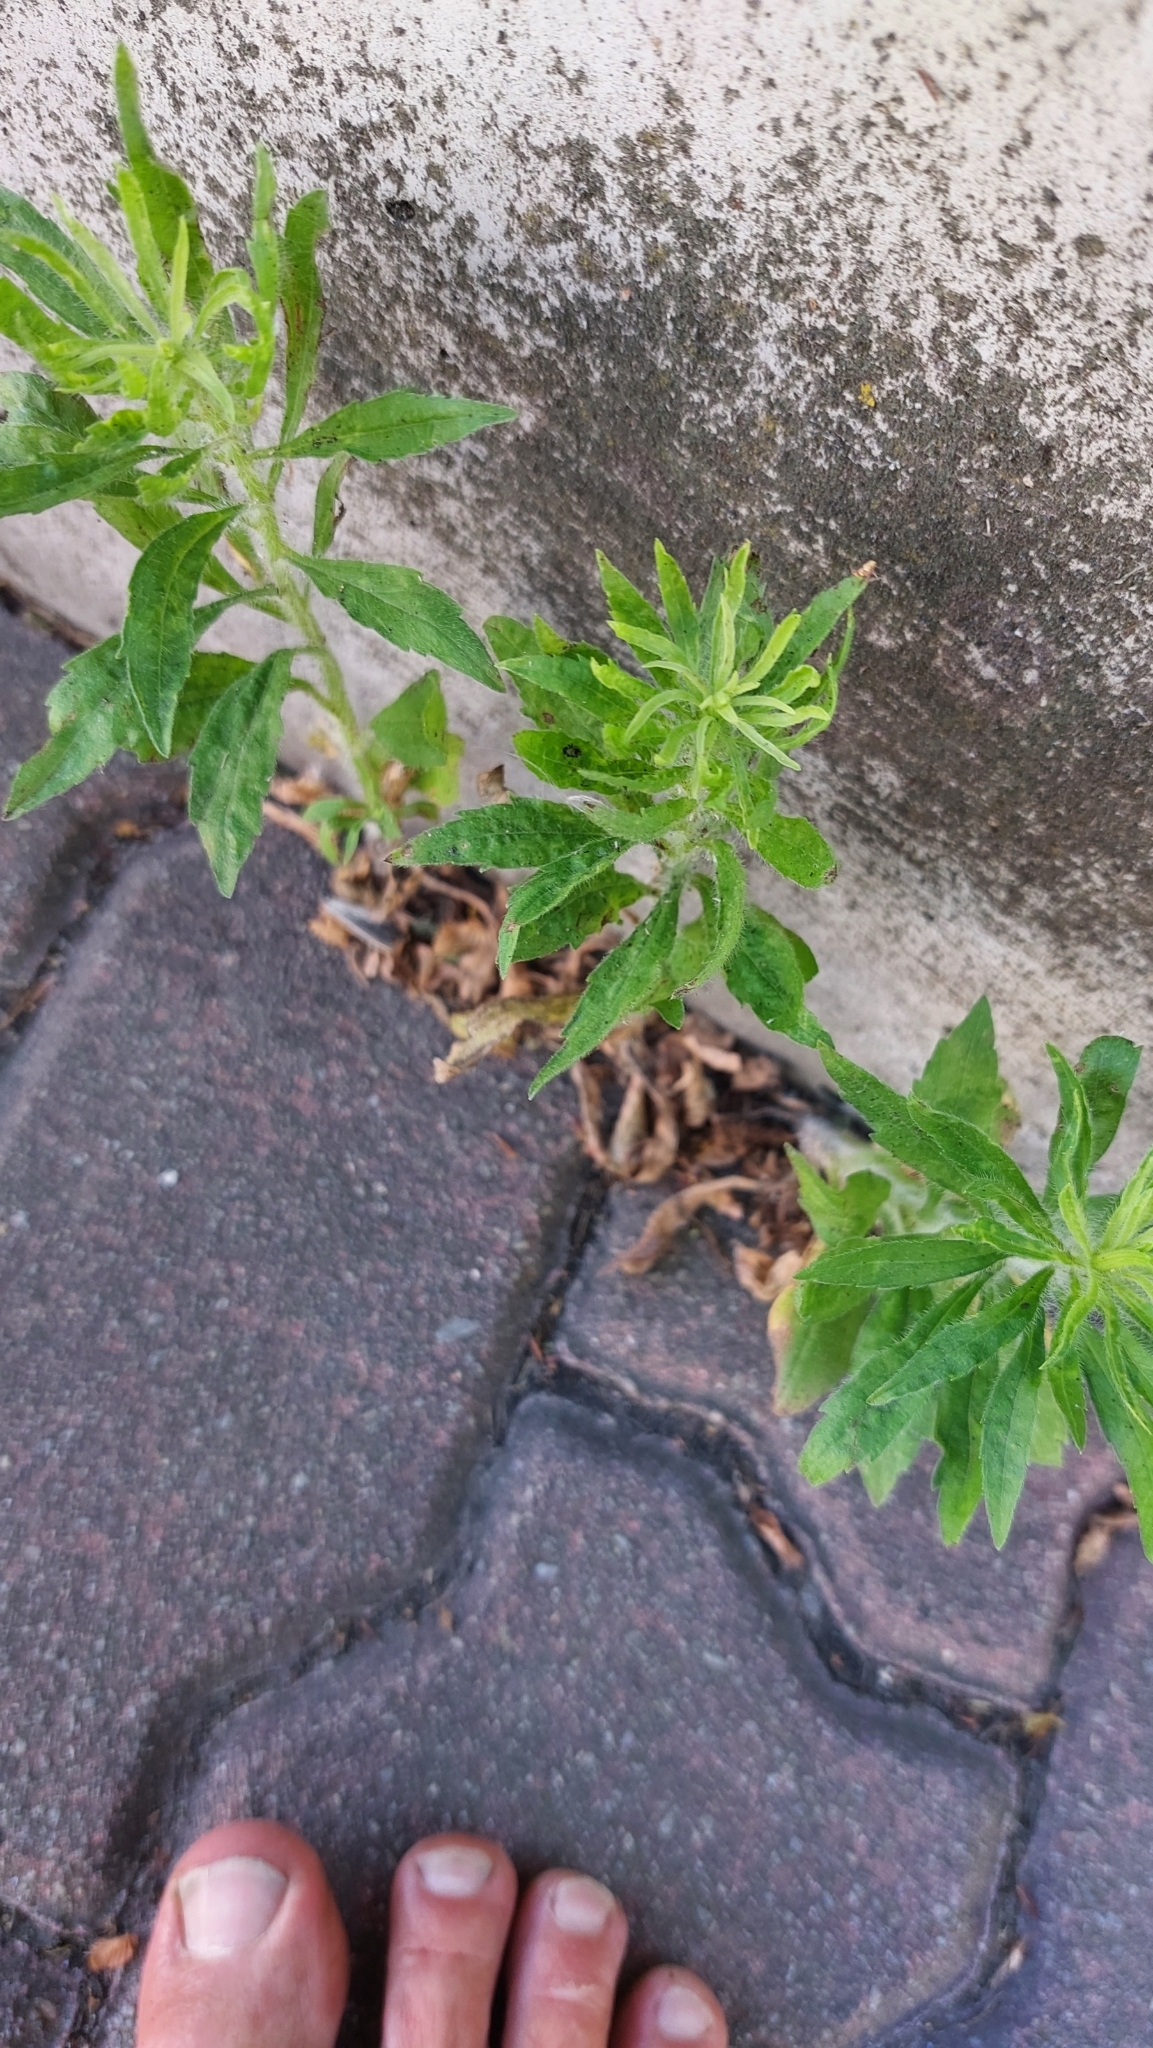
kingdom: Plantae
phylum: Tracheophyta
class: Magnoliopsida
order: Asterales
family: Asteraceae
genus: Erigeron
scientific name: Erigeron canadensis
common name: Canadian fleabane
